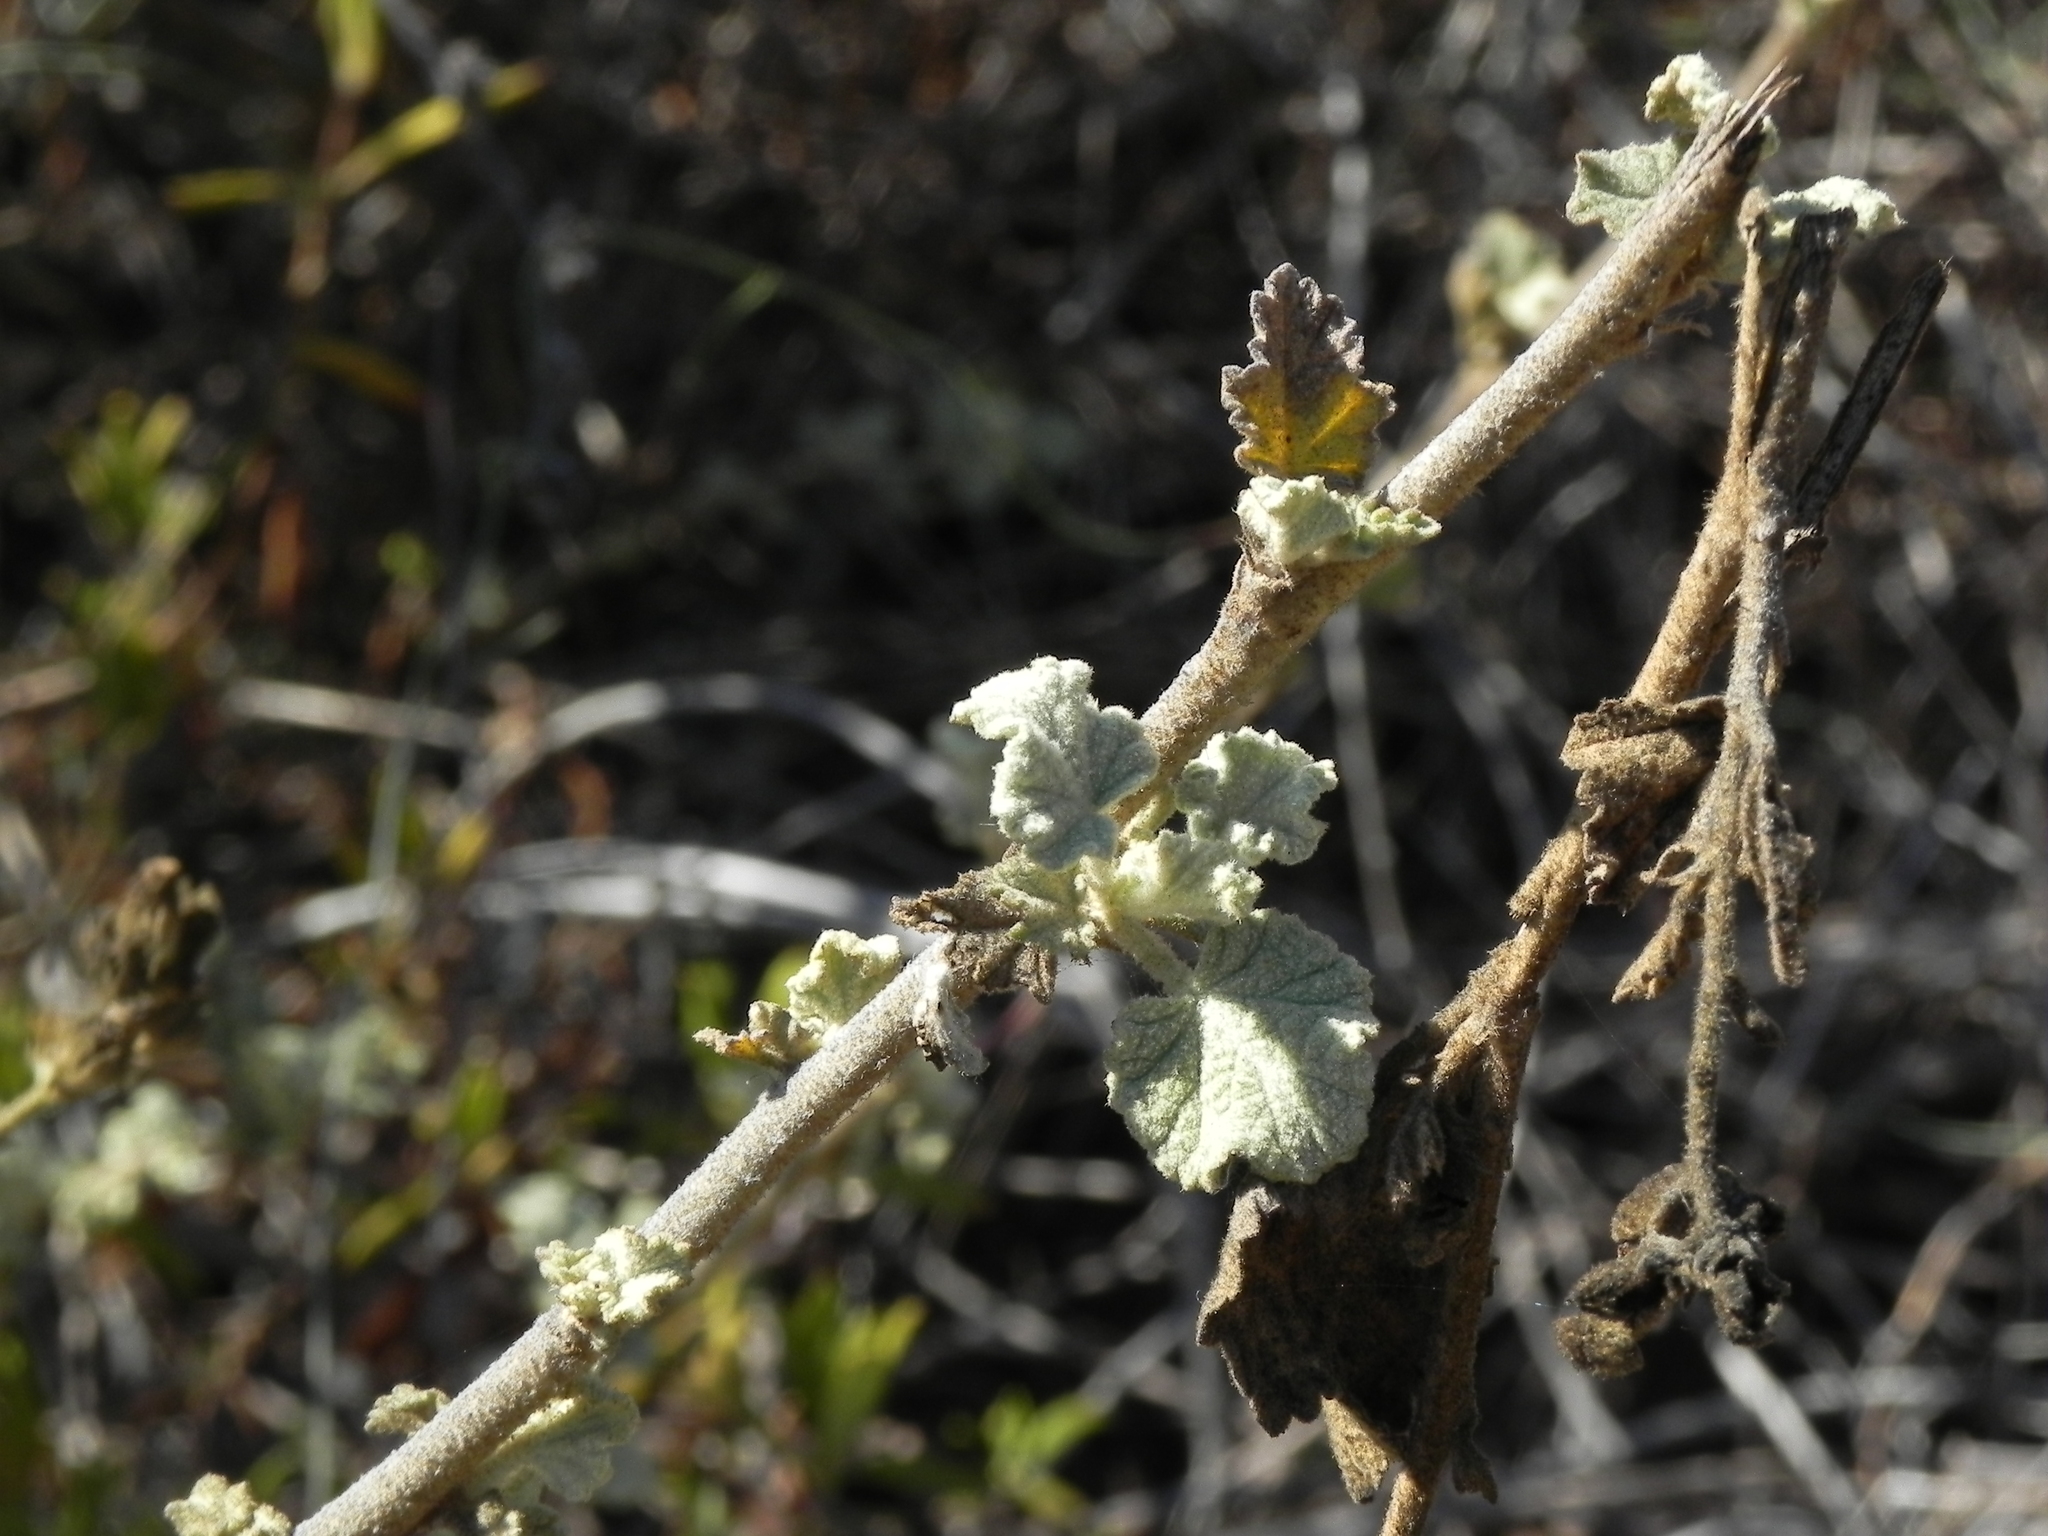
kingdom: Plantae
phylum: Tracheophyta
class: Magnoliopsida
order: Malvales
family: Malvaceae
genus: Malacothamnus
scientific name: Malacothamnus fasciculatus
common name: Sant cruz island bush-mallow
